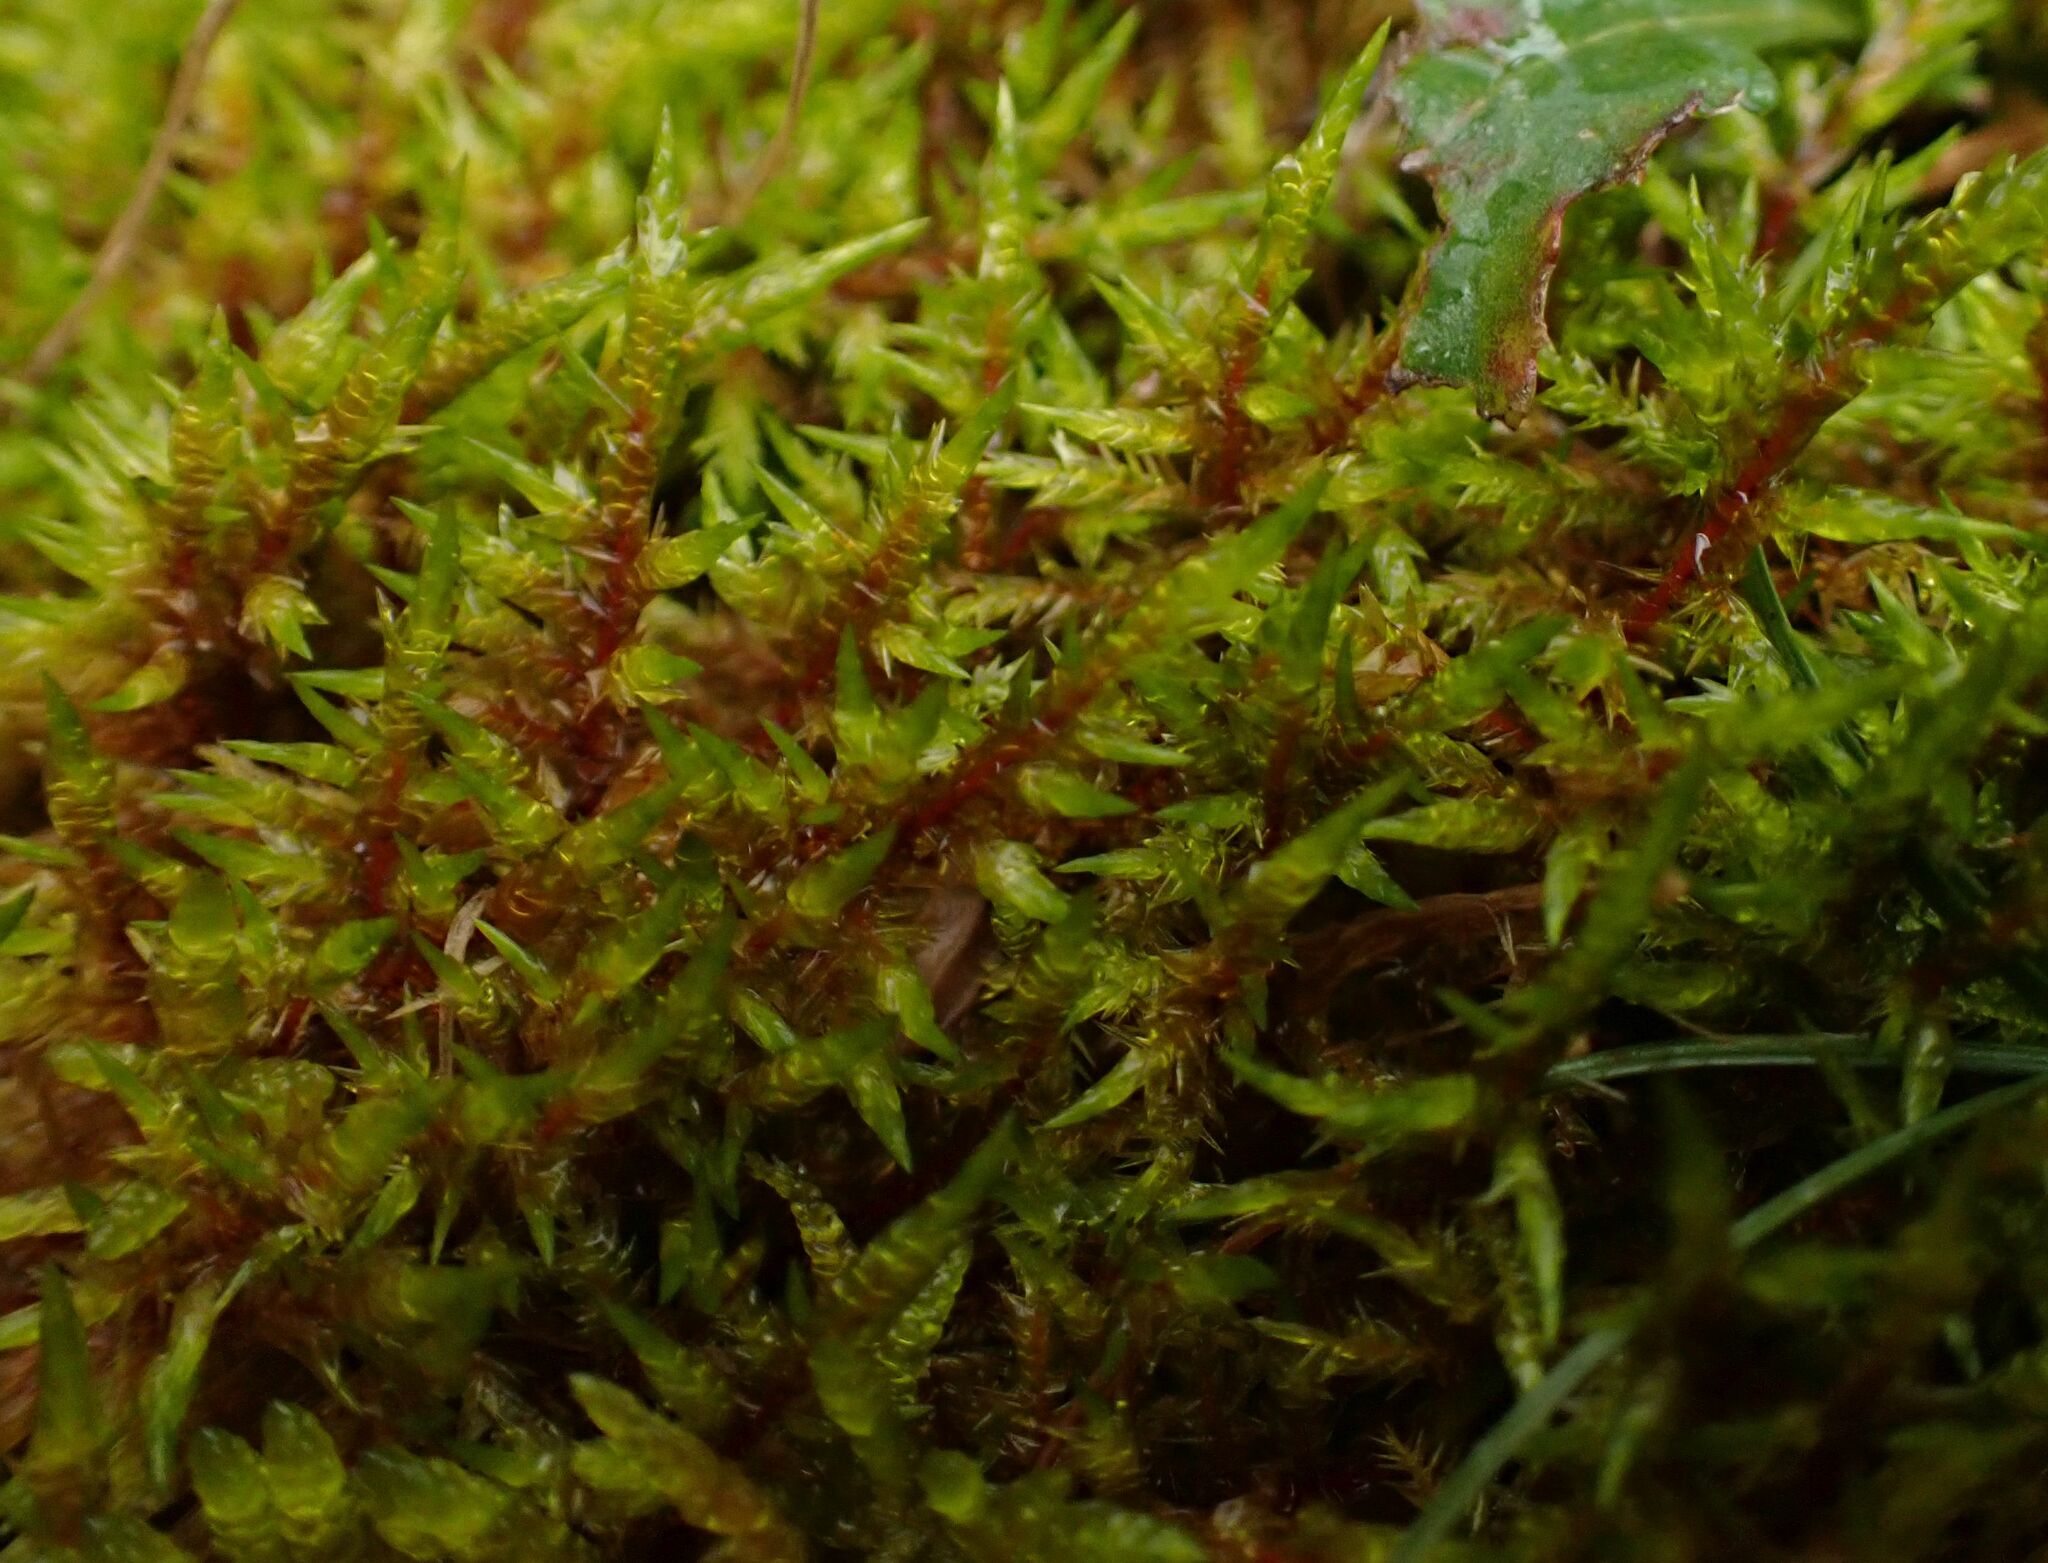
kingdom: Plantae
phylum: Bryophyta
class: Bryopsida
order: Hypnales
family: Pylaisiaceae
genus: Calliergonella
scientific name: Calliergonella cuspidata
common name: Common large wetland moss
